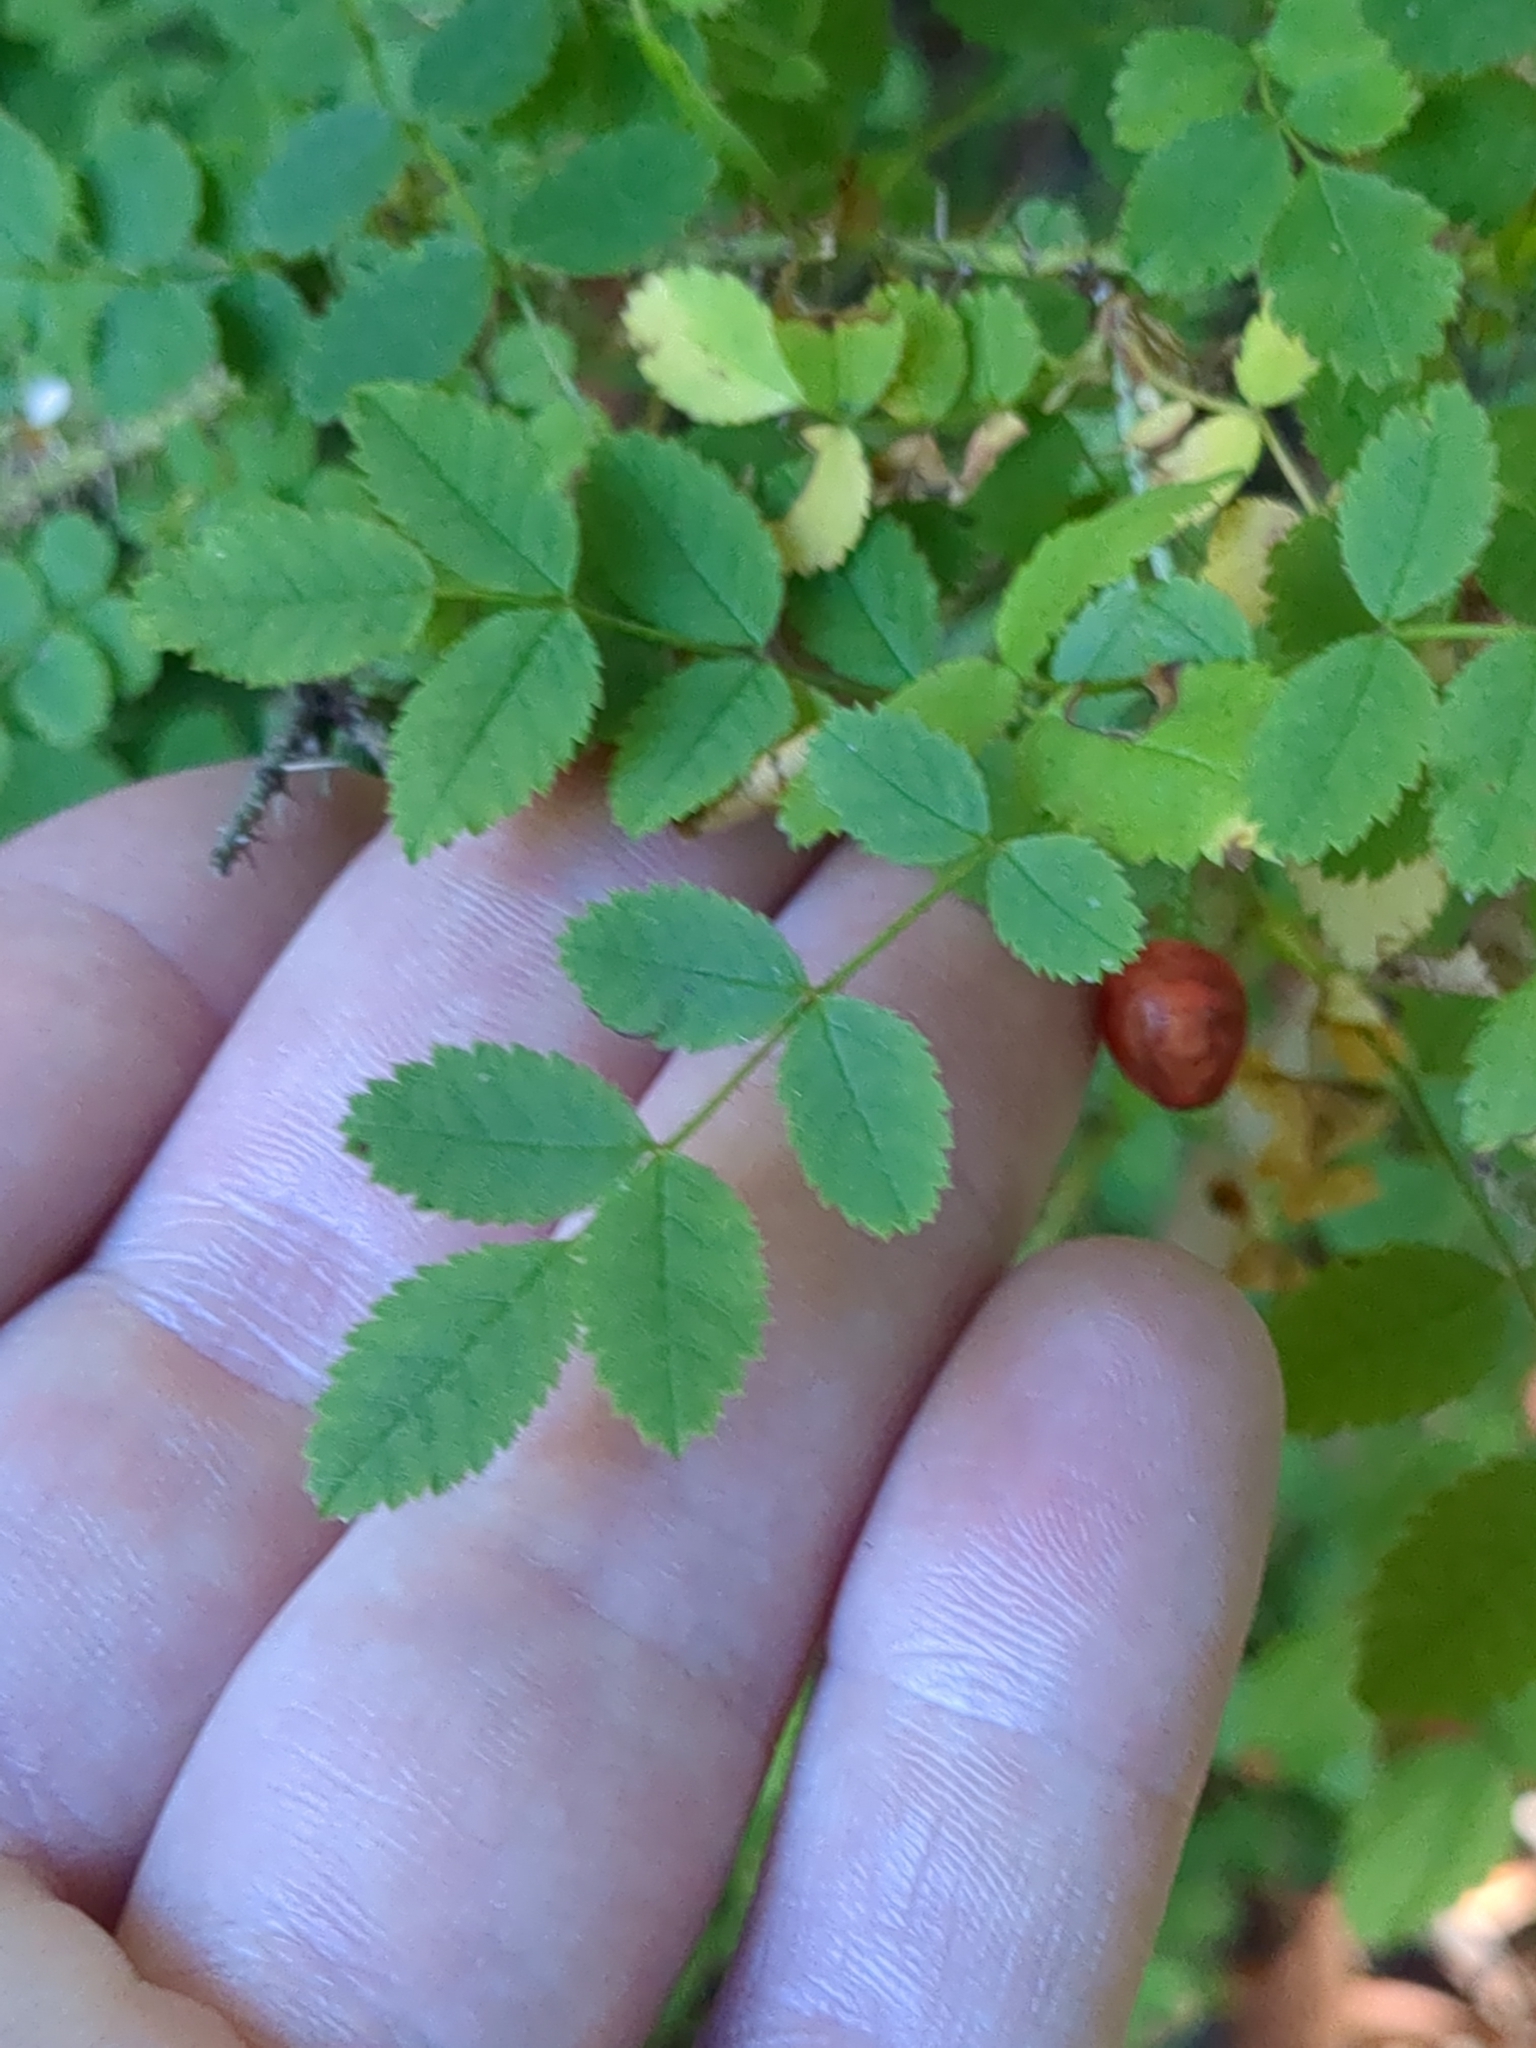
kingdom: Plantae
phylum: Tracheophyta
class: Magnoliopsida
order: Rosales
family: Rosaceae
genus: Rosa
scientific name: Rosa gymnocarpa
